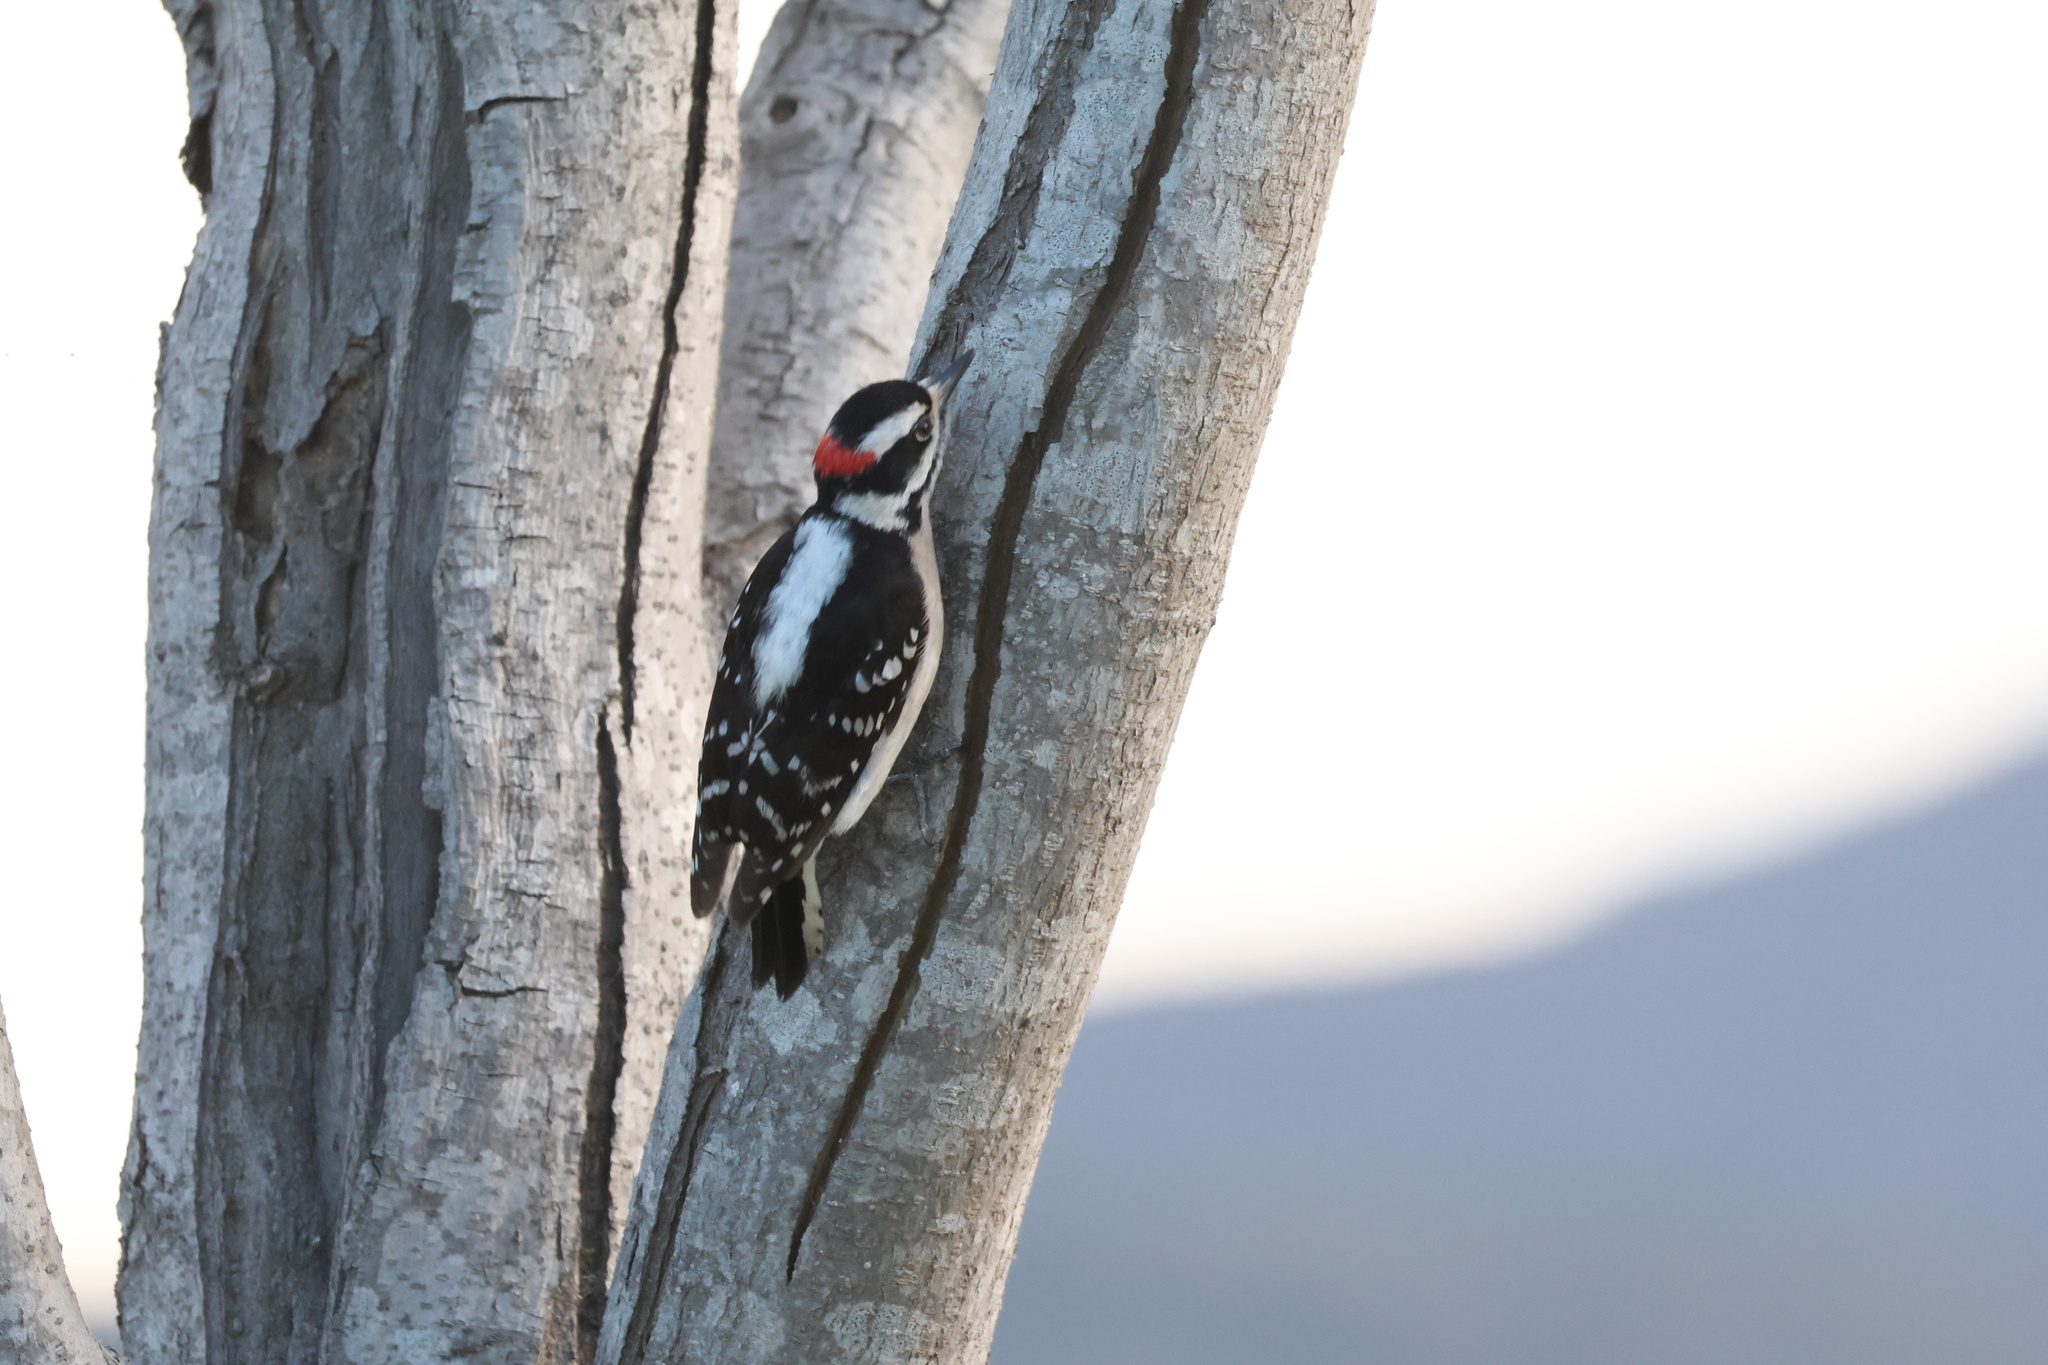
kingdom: Animalia
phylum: Chordata
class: Aves
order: Piciformes
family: Picidae
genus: Dryobates
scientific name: Dryobates pubescens
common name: Downy woodpecker
